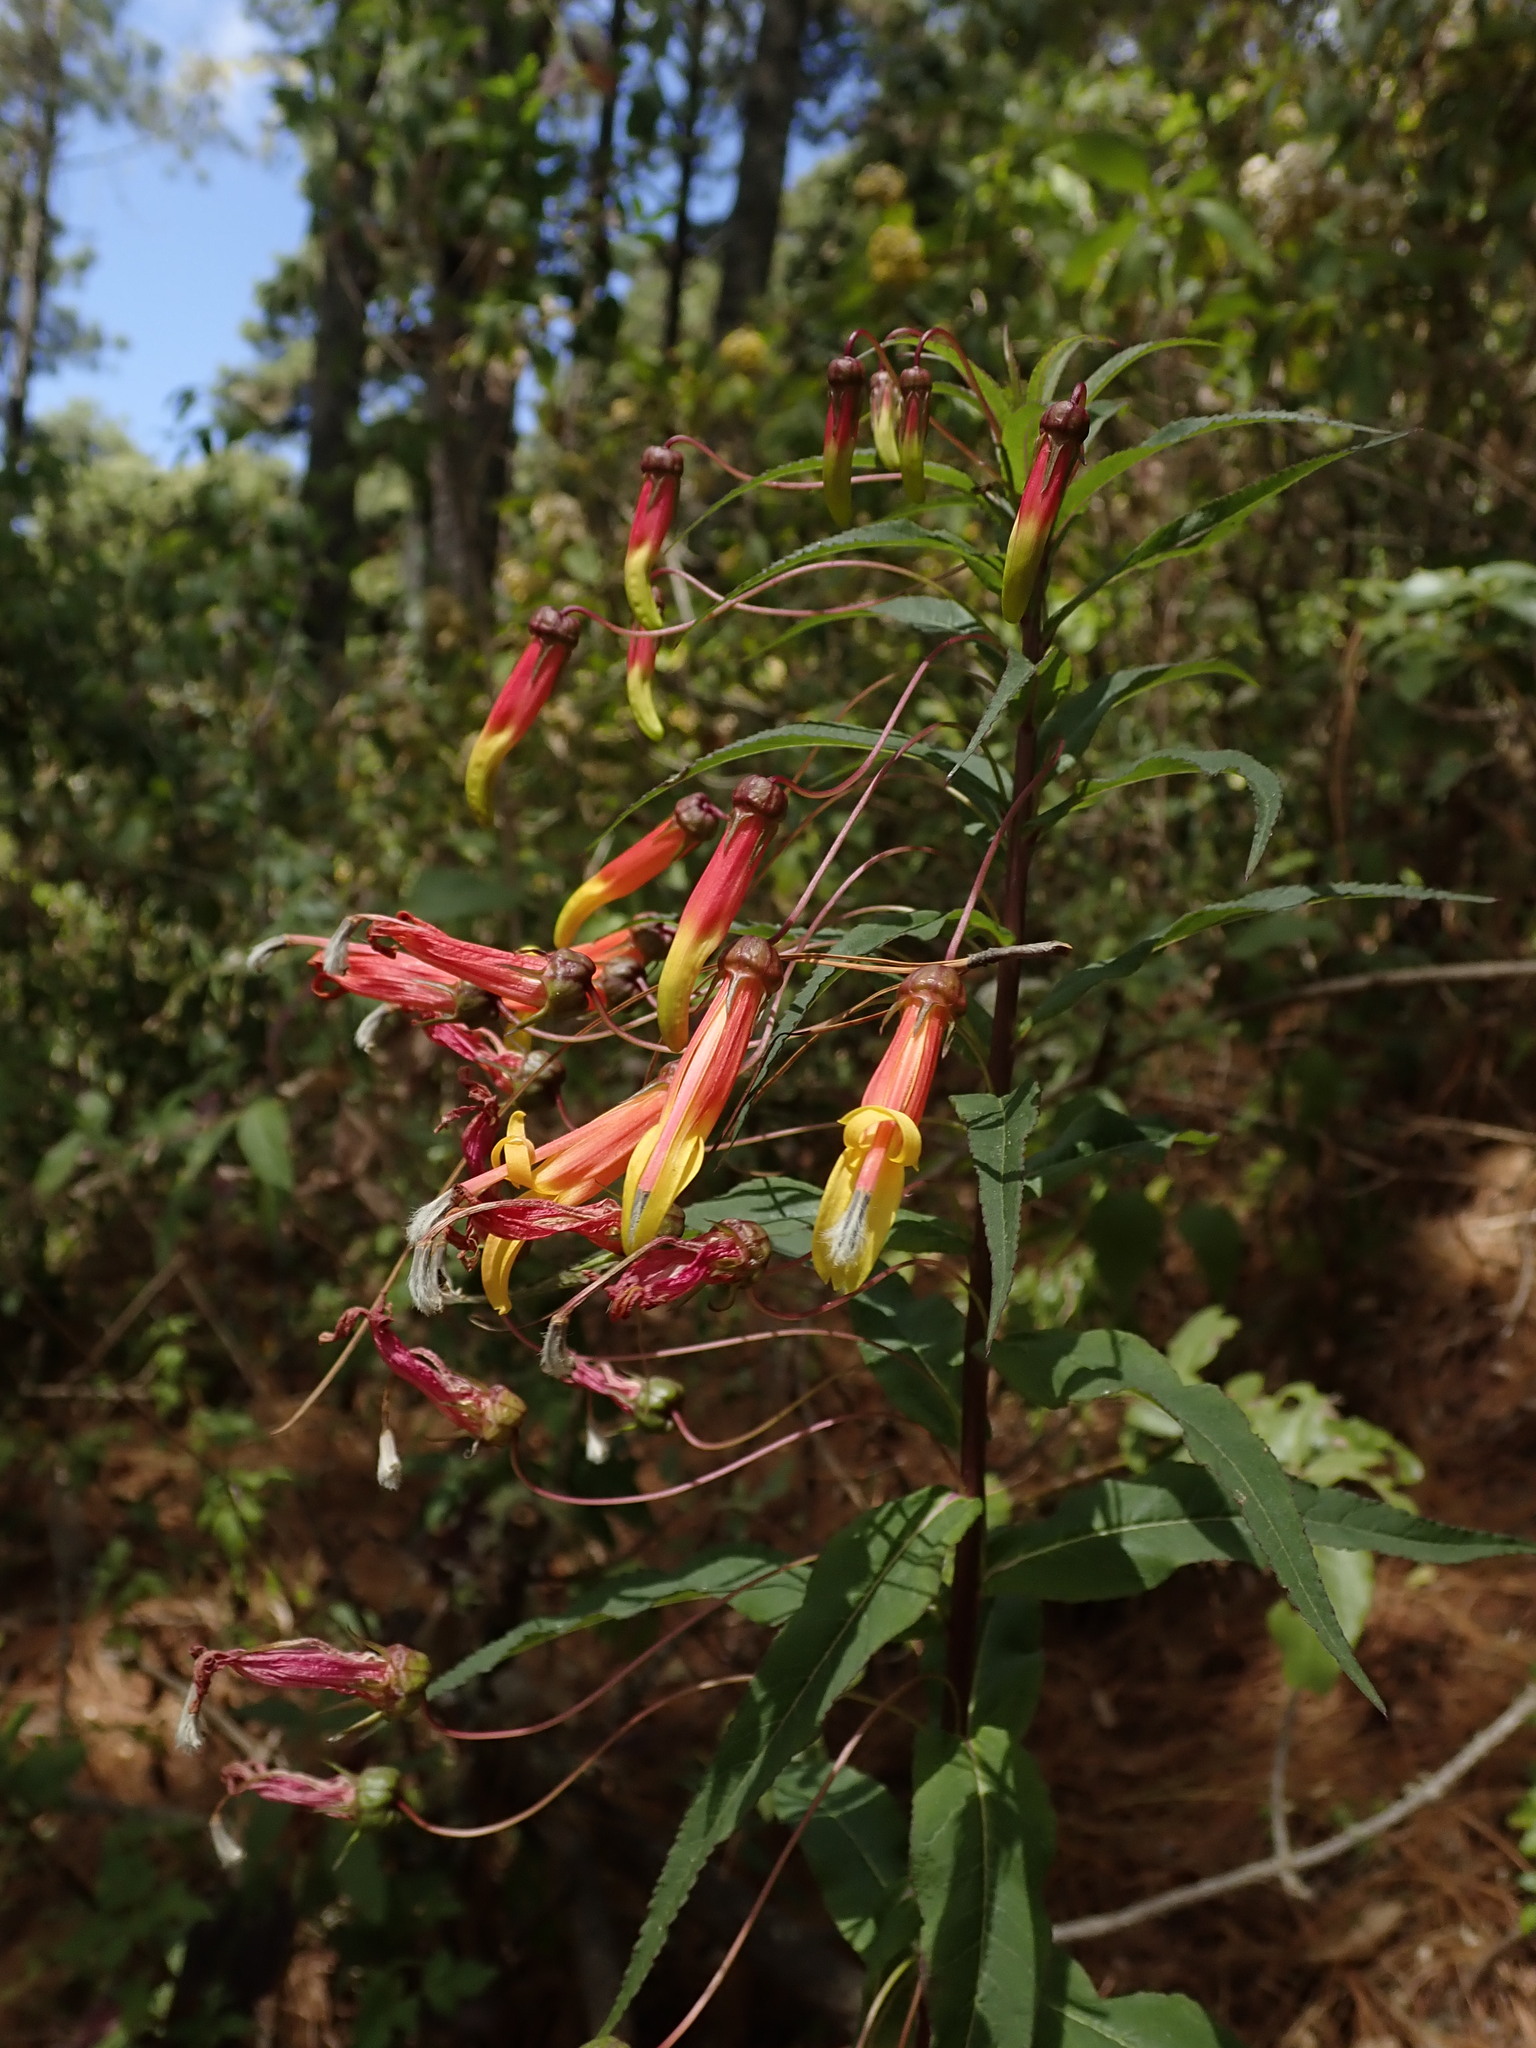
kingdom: Plantae
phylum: Tracheophyta
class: Magnoliopsida
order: Asterales
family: Campanulaceae
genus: Lobelia
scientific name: Lobelia laxiflora
